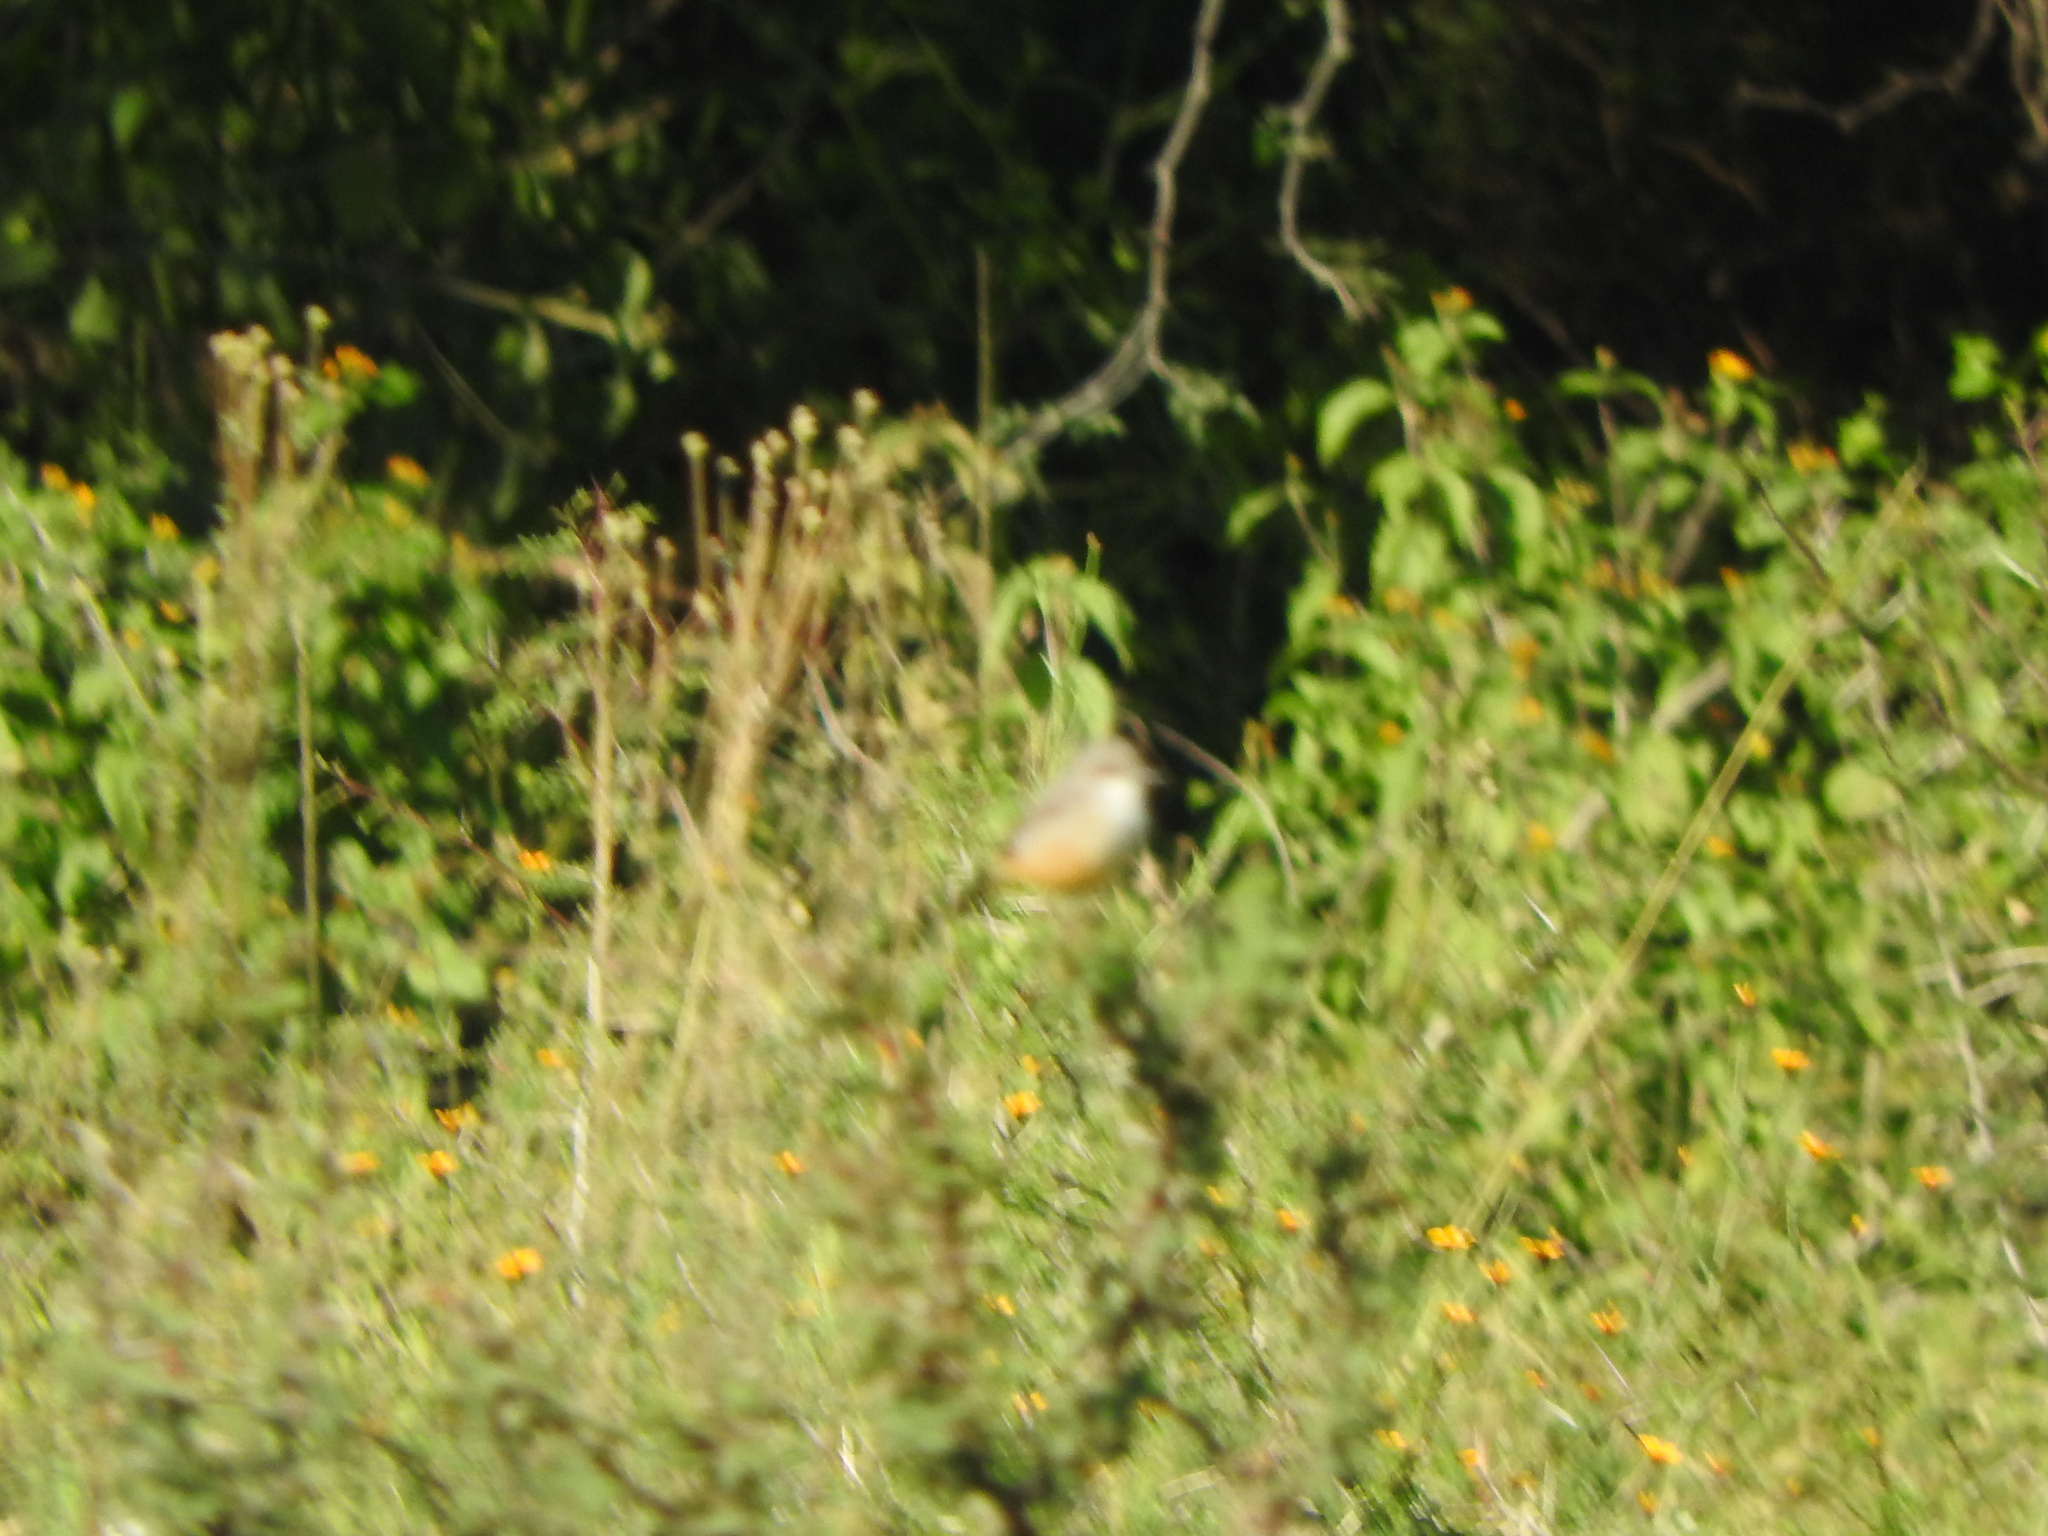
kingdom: Animalia
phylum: Chordata
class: Aves
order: Passeriformes
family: Tyrannidae
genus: Pyrocephalus
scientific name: Pyrocephalus rubinus
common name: Vermilion flycatcher
